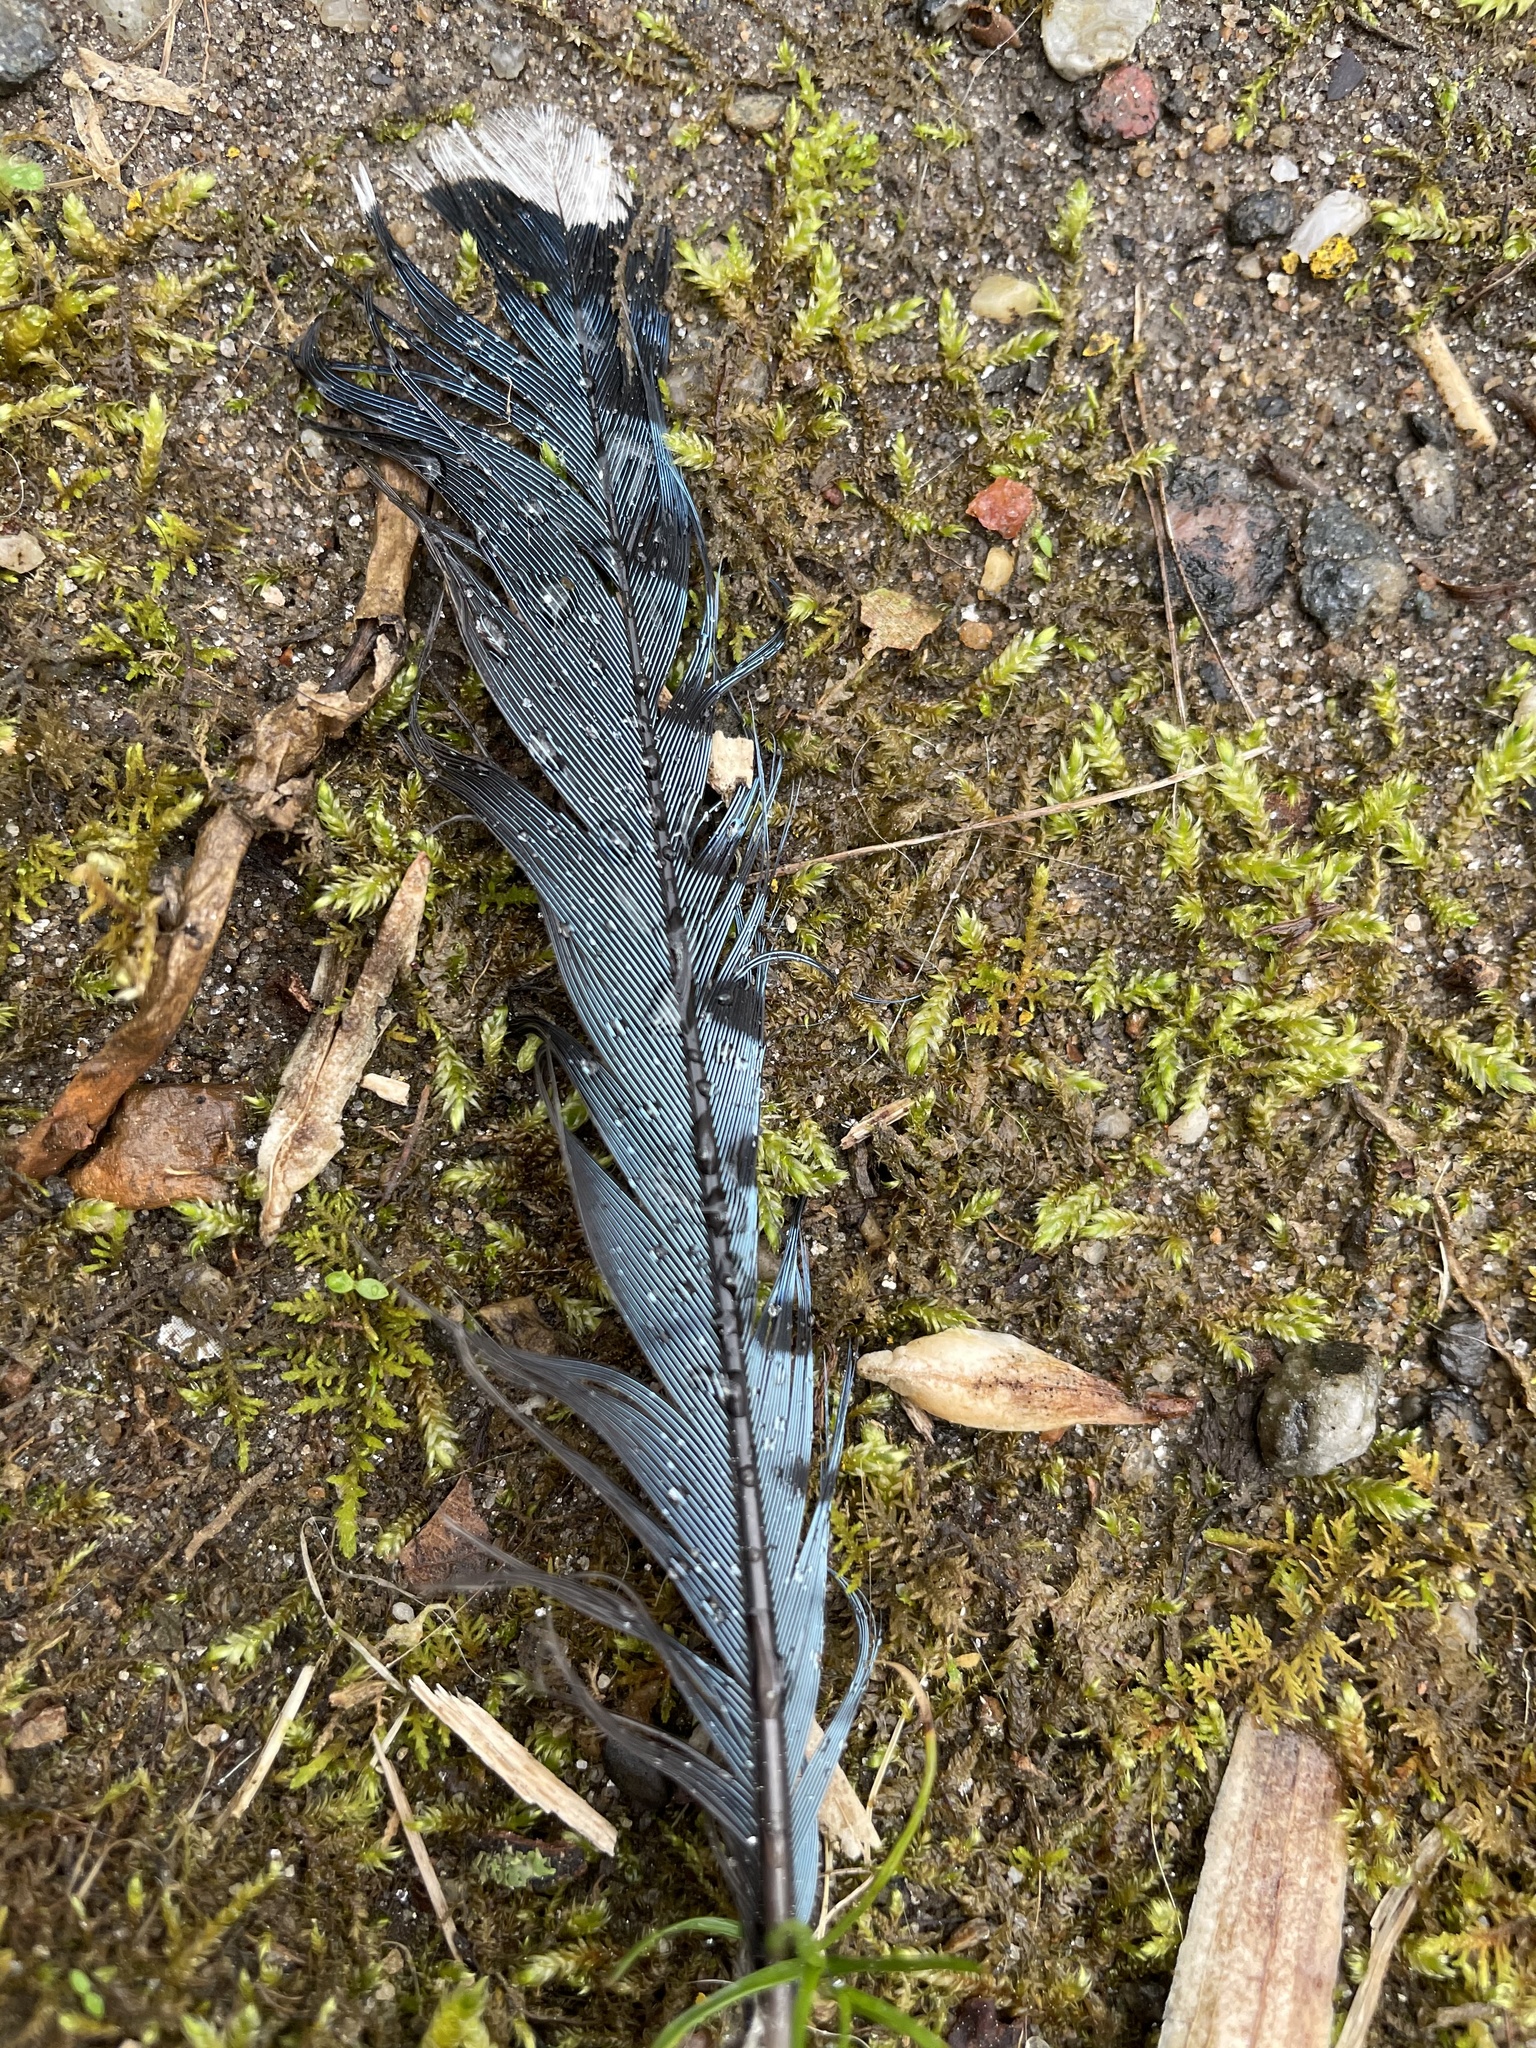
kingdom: Animalia
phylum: Chordata
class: Aves
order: Passeriformes
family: Corvidae
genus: Cyanocitta
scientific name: Cyanocitta cristata
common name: Blue jay
